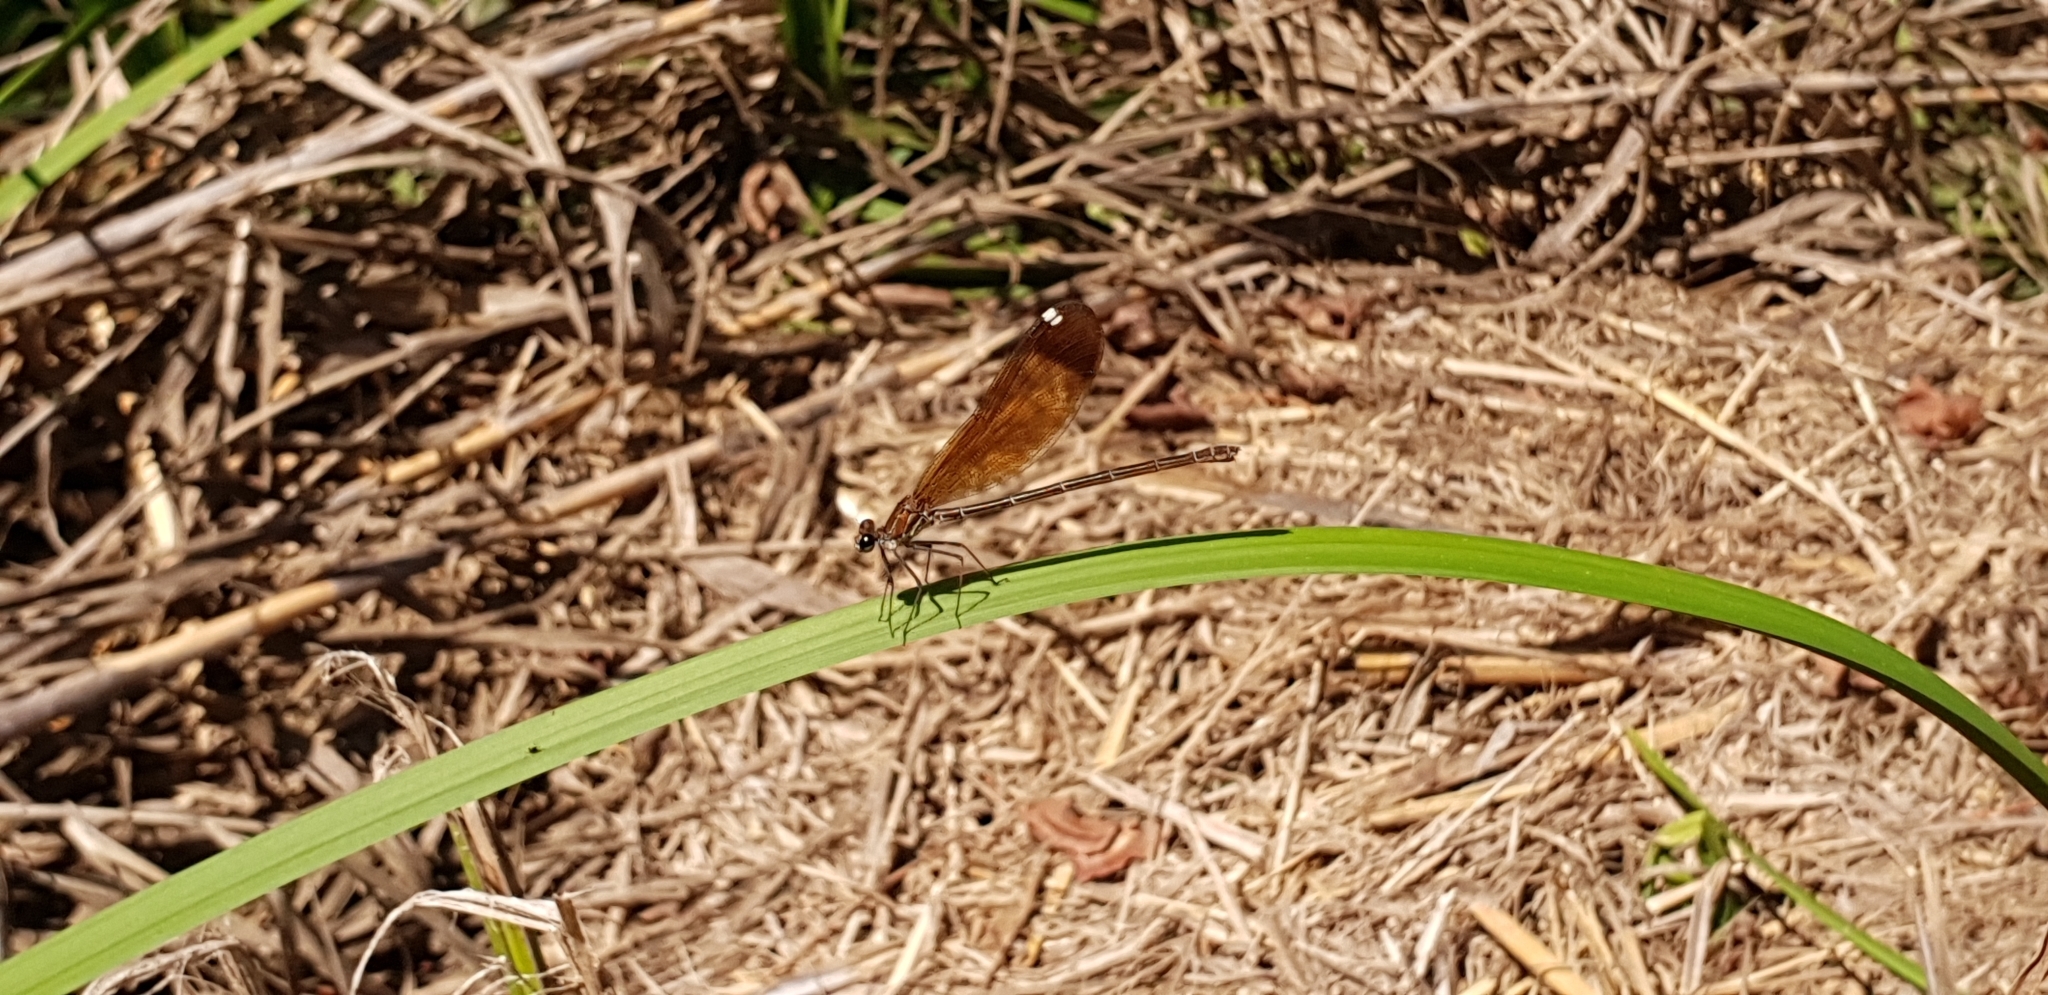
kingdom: Animalia
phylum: Arthropoda
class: Insecta
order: Odonata
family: Calopterygidae
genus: Calopteryx
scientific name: Calopteryx haemorrhoidalis
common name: Copper demoiselle
